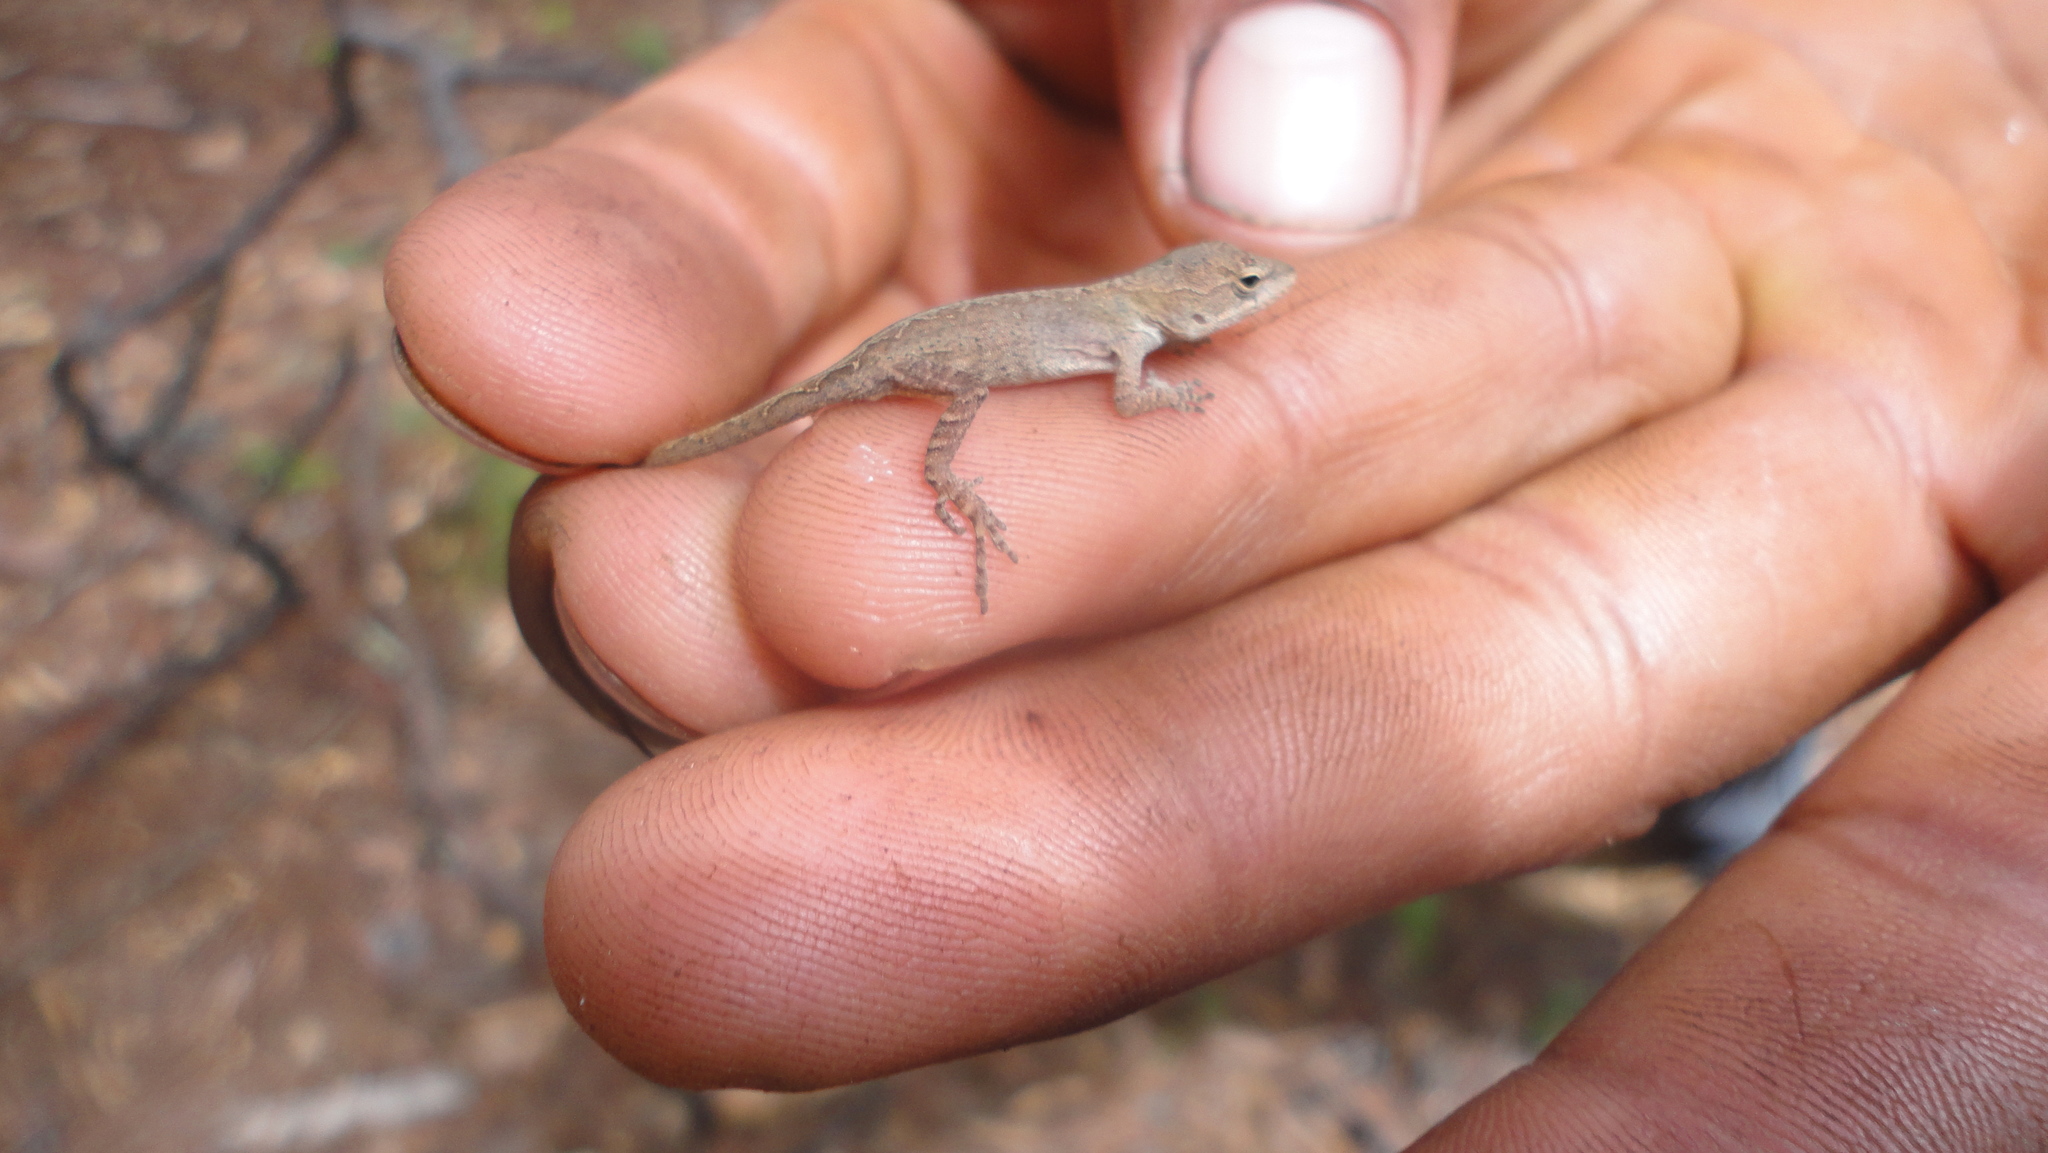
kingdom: Animalia
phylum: Chordata
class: Squamata
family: Dactyloidae
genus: Anolis
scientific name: Anolis quercorum
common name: Gray anole
